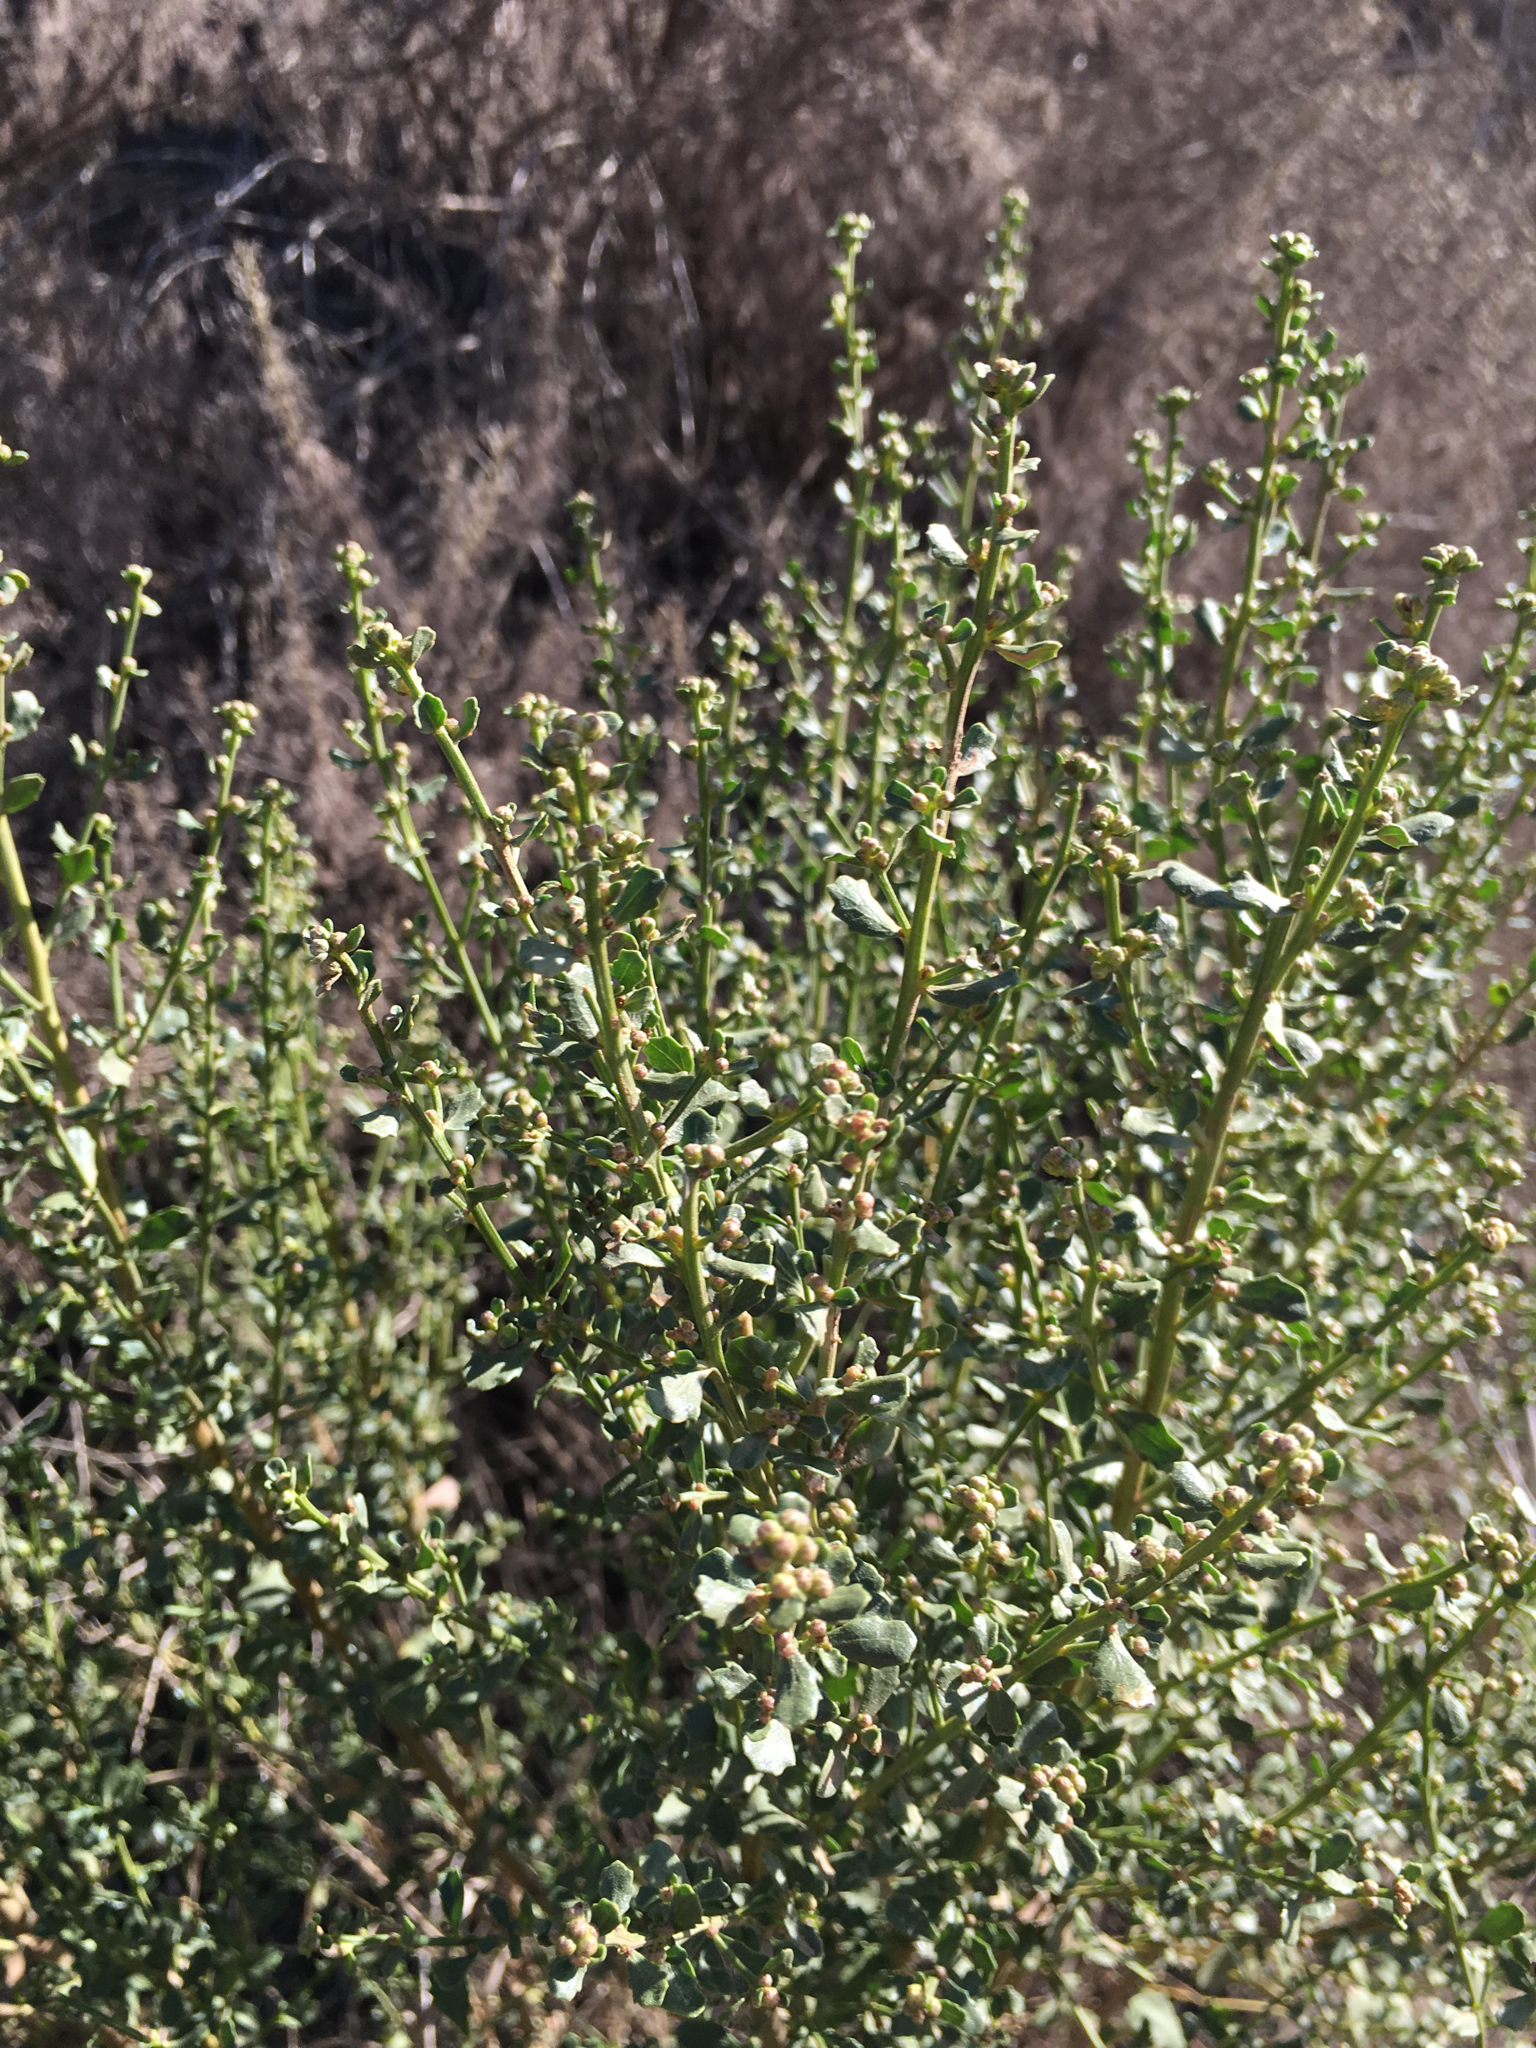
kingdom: Plantae
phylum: Tracheophyta
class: Magnoliopsida
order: Asterales
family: Asteraceae
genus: Baccharis
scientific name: Baccharis pilularis
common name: Coyotebrush
